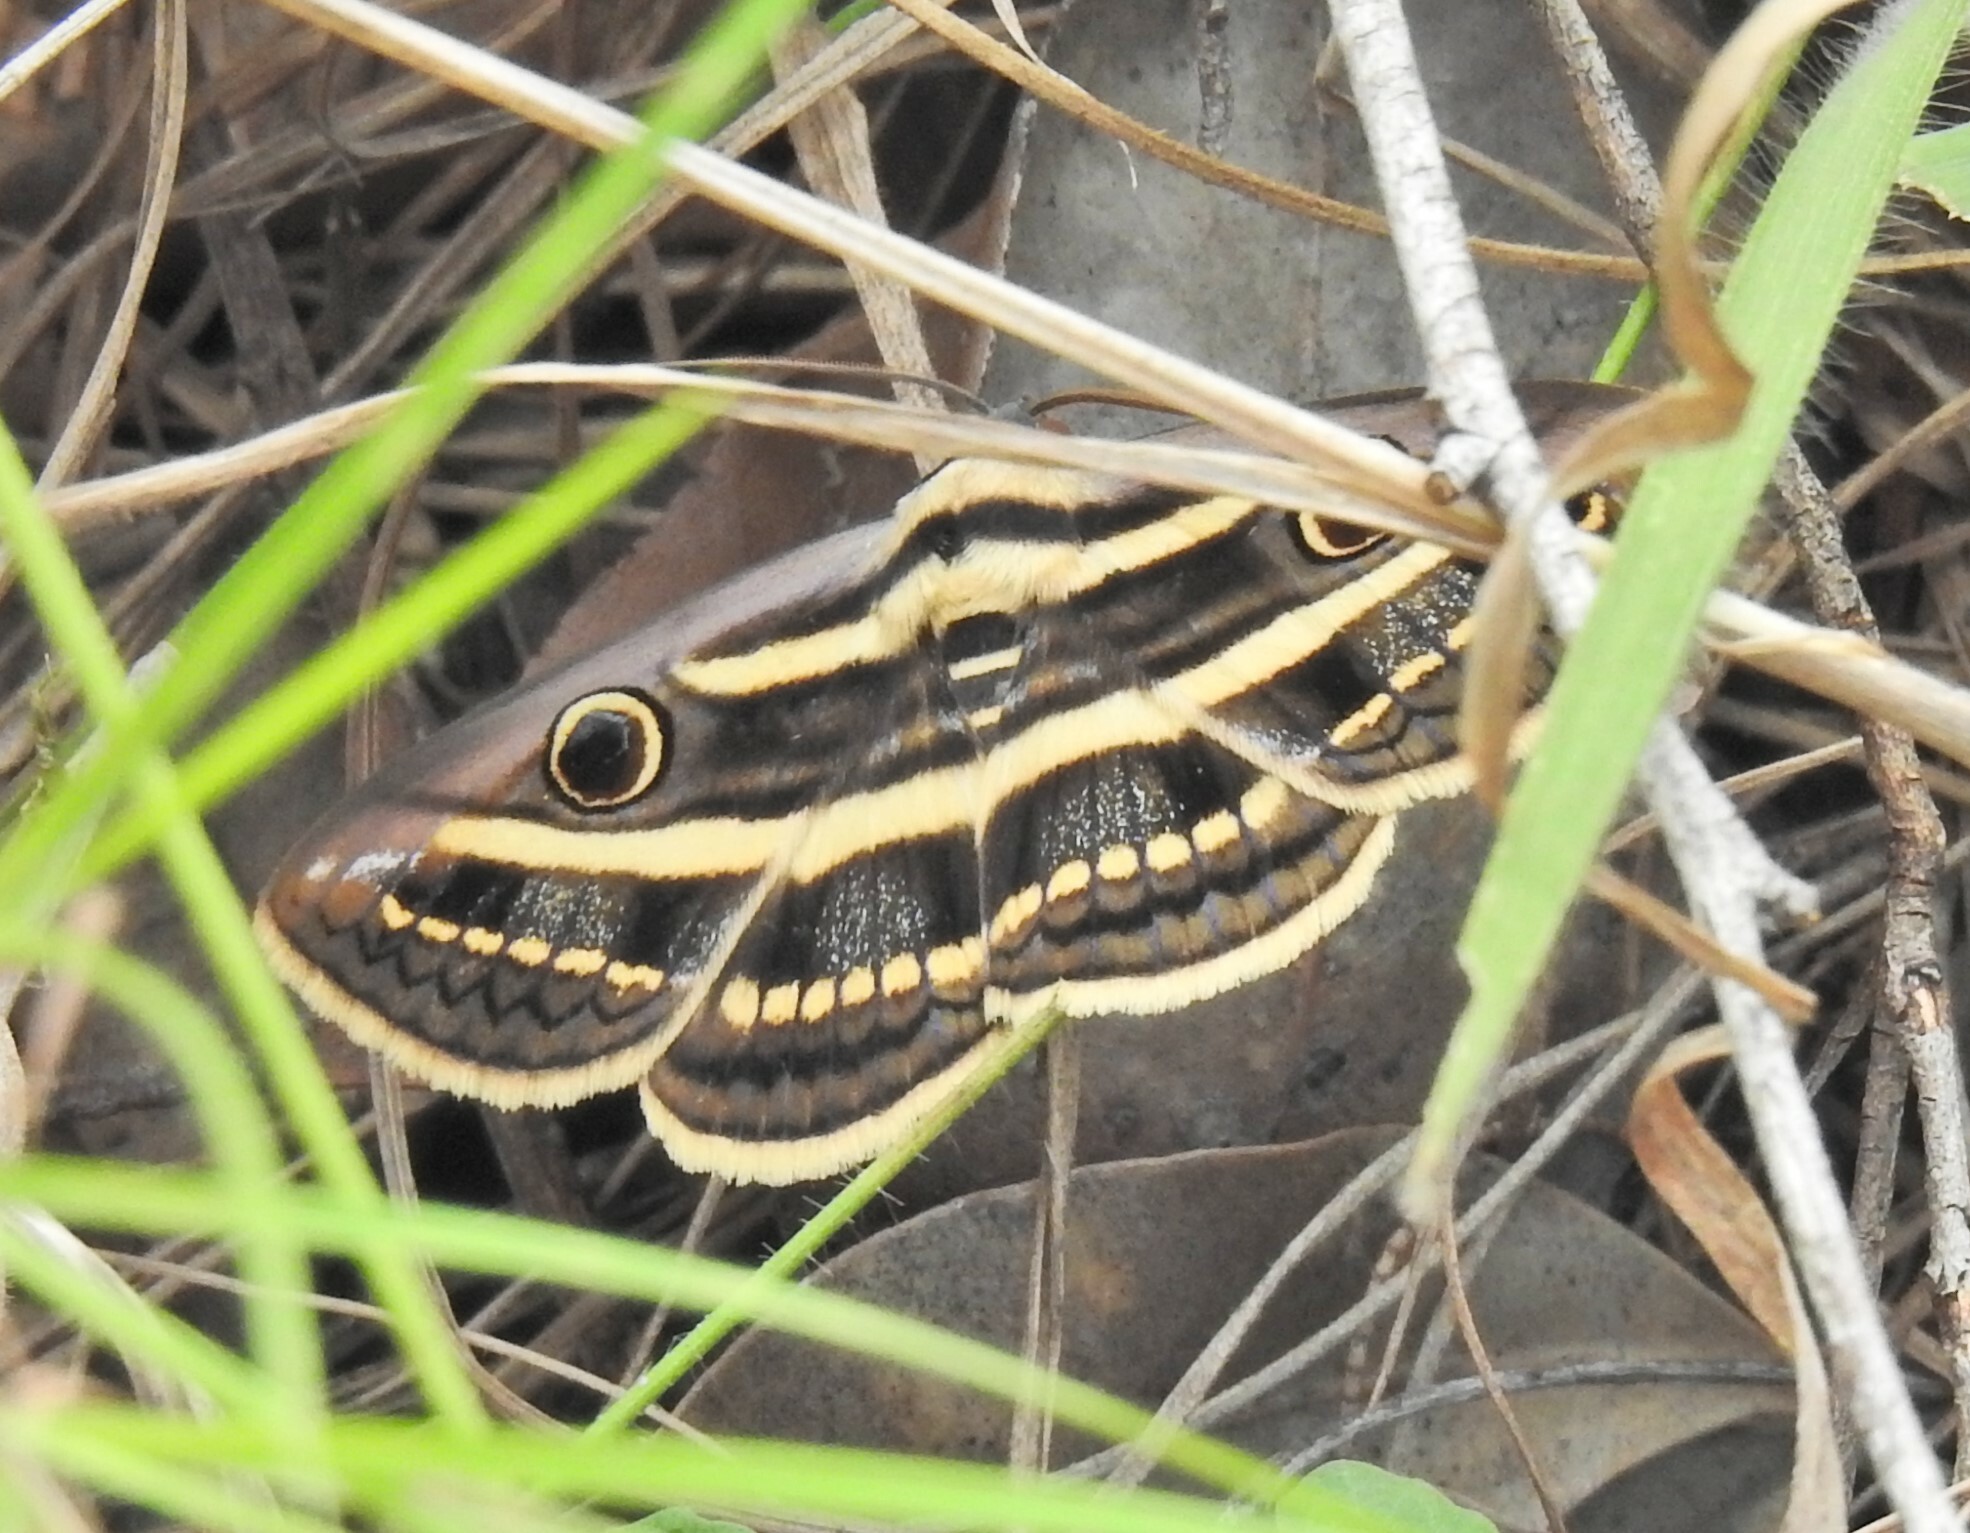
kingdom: Animalia
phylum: Arthropoda
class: Insecta
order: Lepidoptera
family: Erebidae
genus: Donuca
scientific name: Donuca orbigera
